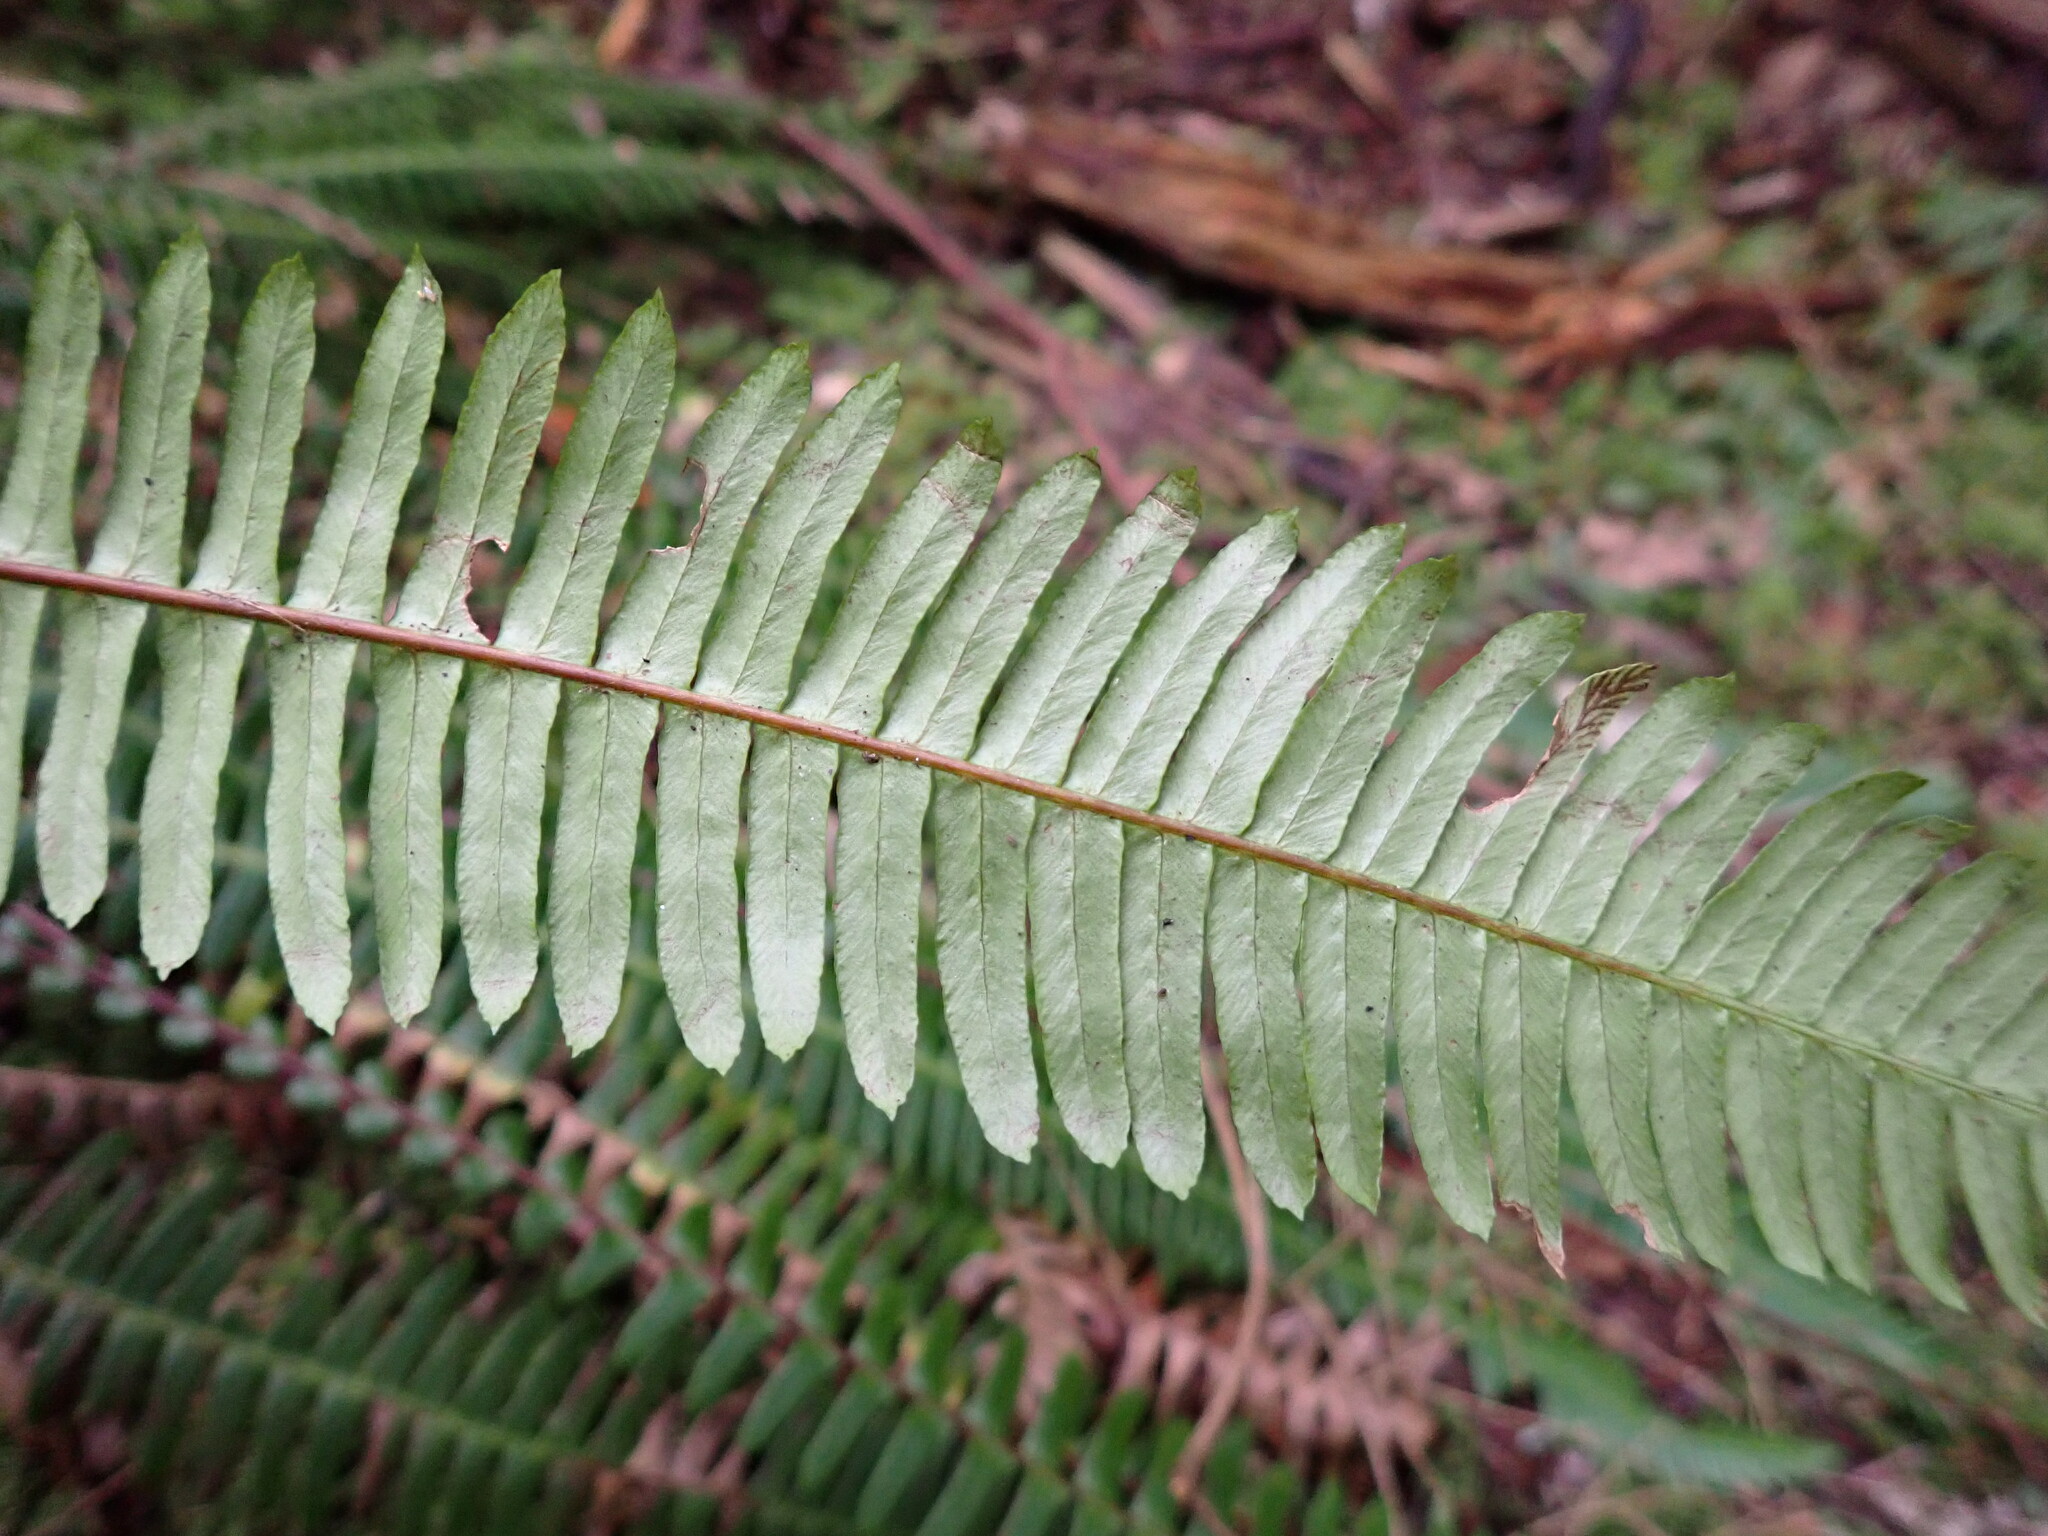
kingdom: Plantae
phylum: Tracheophyta
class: Polypodiopsida
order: Polypodiales
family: Blechnaceae
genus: Struthiopteris
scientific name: Struthiopteris spicant
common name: Deer fern
